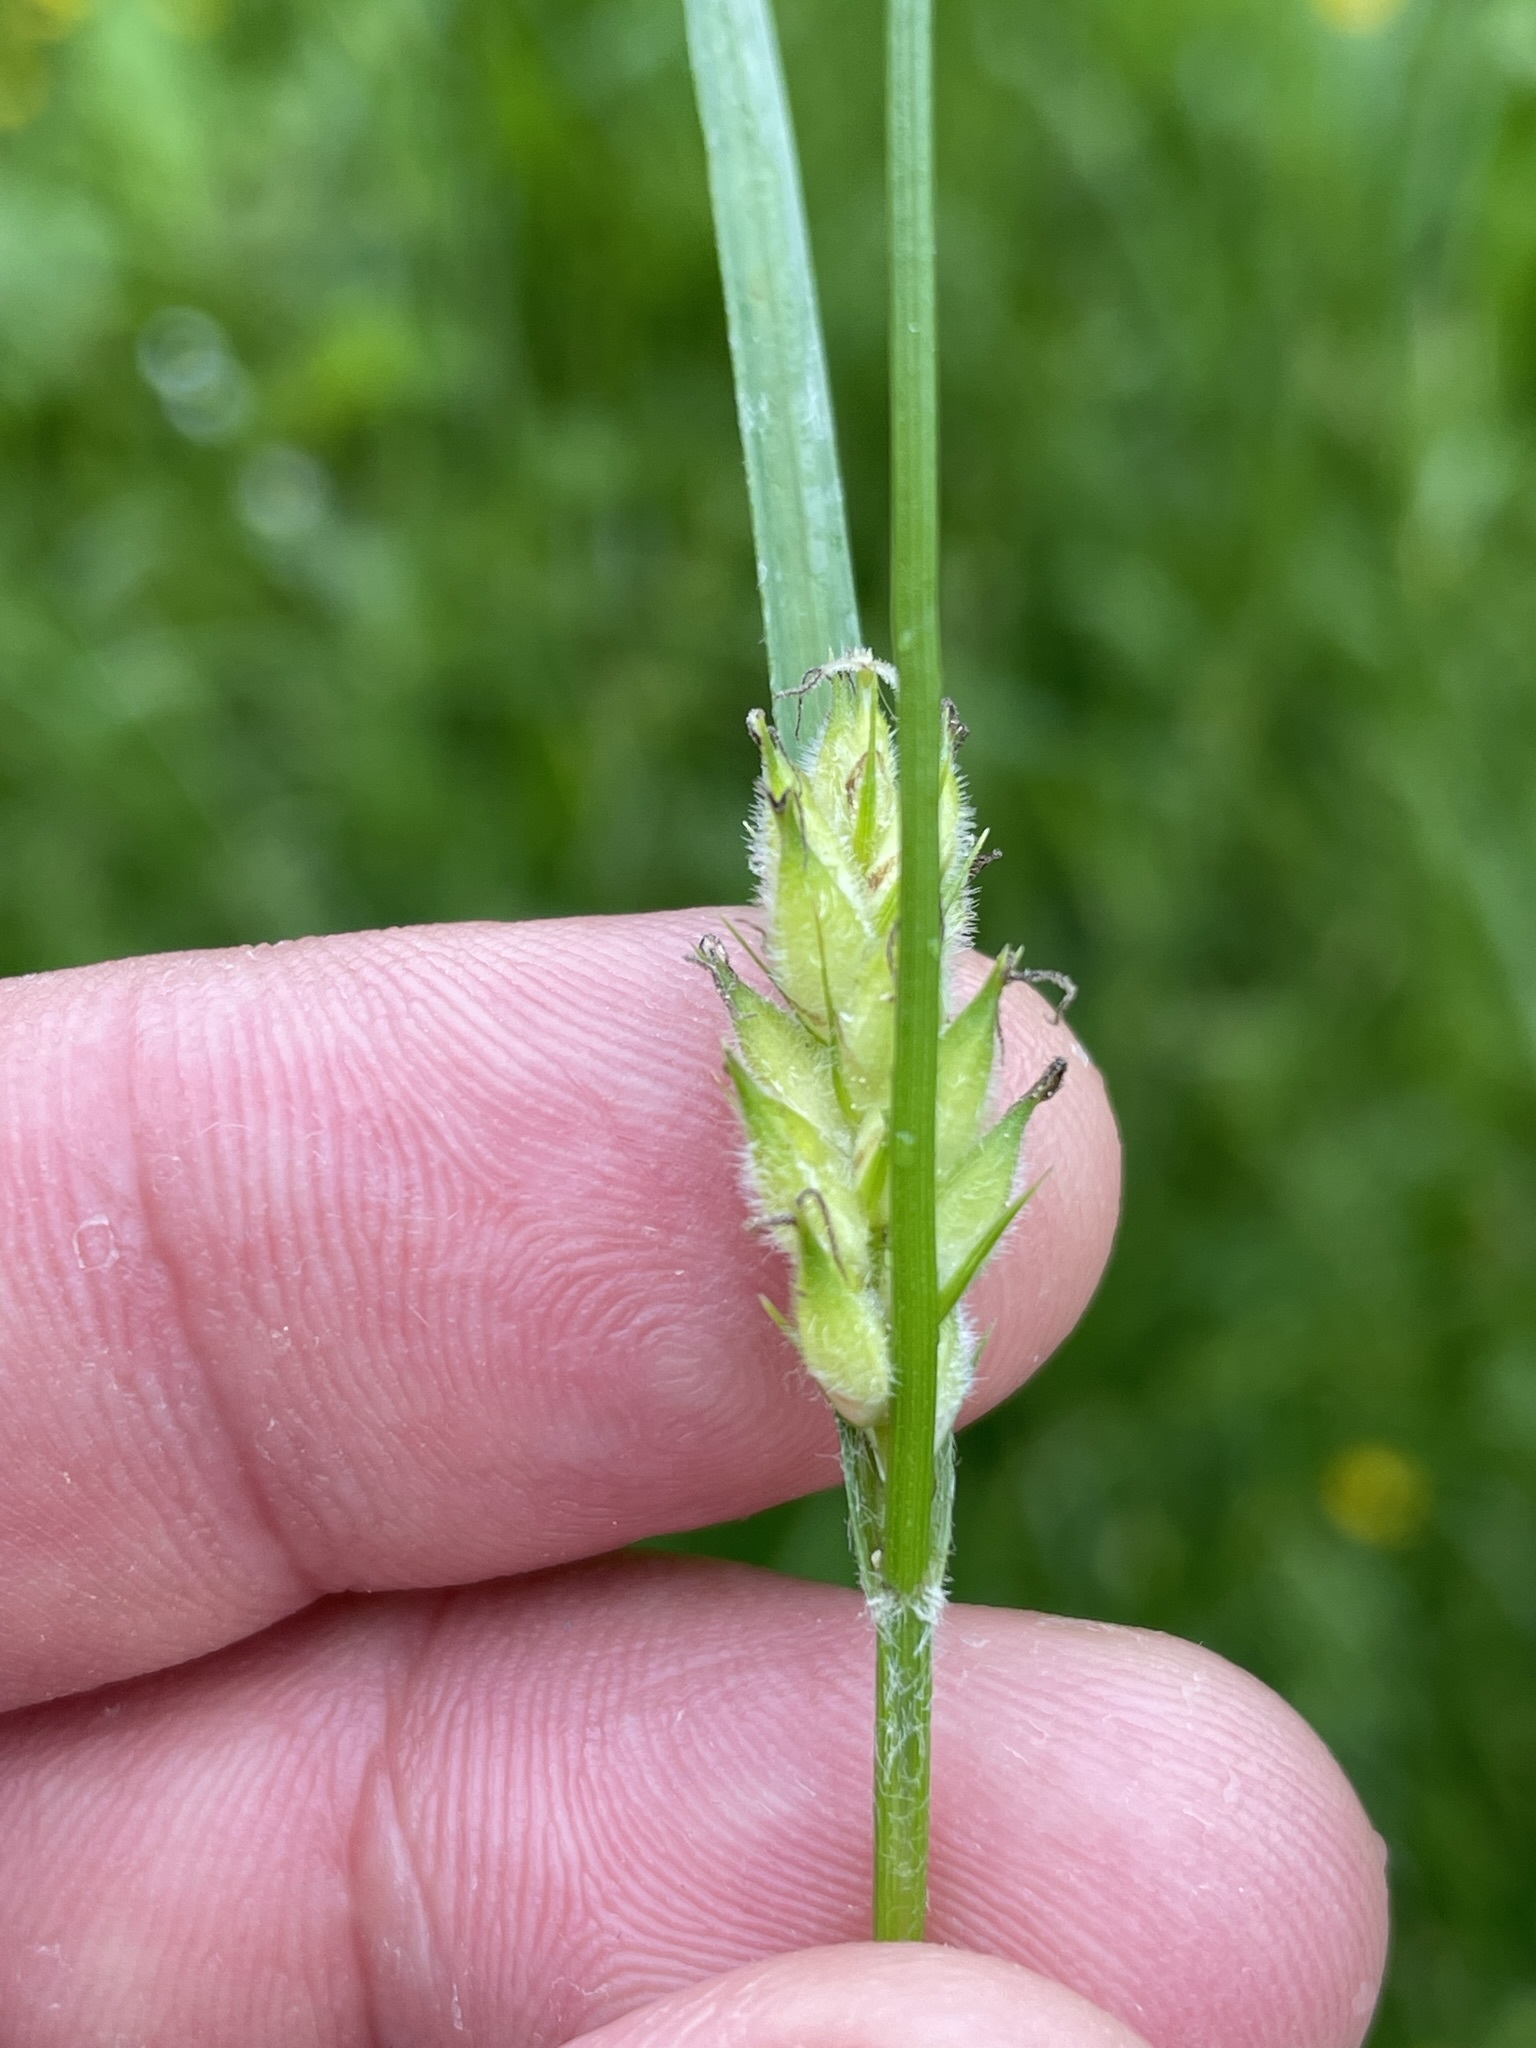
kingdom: Plantae
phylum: Tracheophyta
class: Liliopsida
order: Poales
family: Cyperaceae
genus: Carex
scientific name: Carex hirta
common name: Hairy sedge
